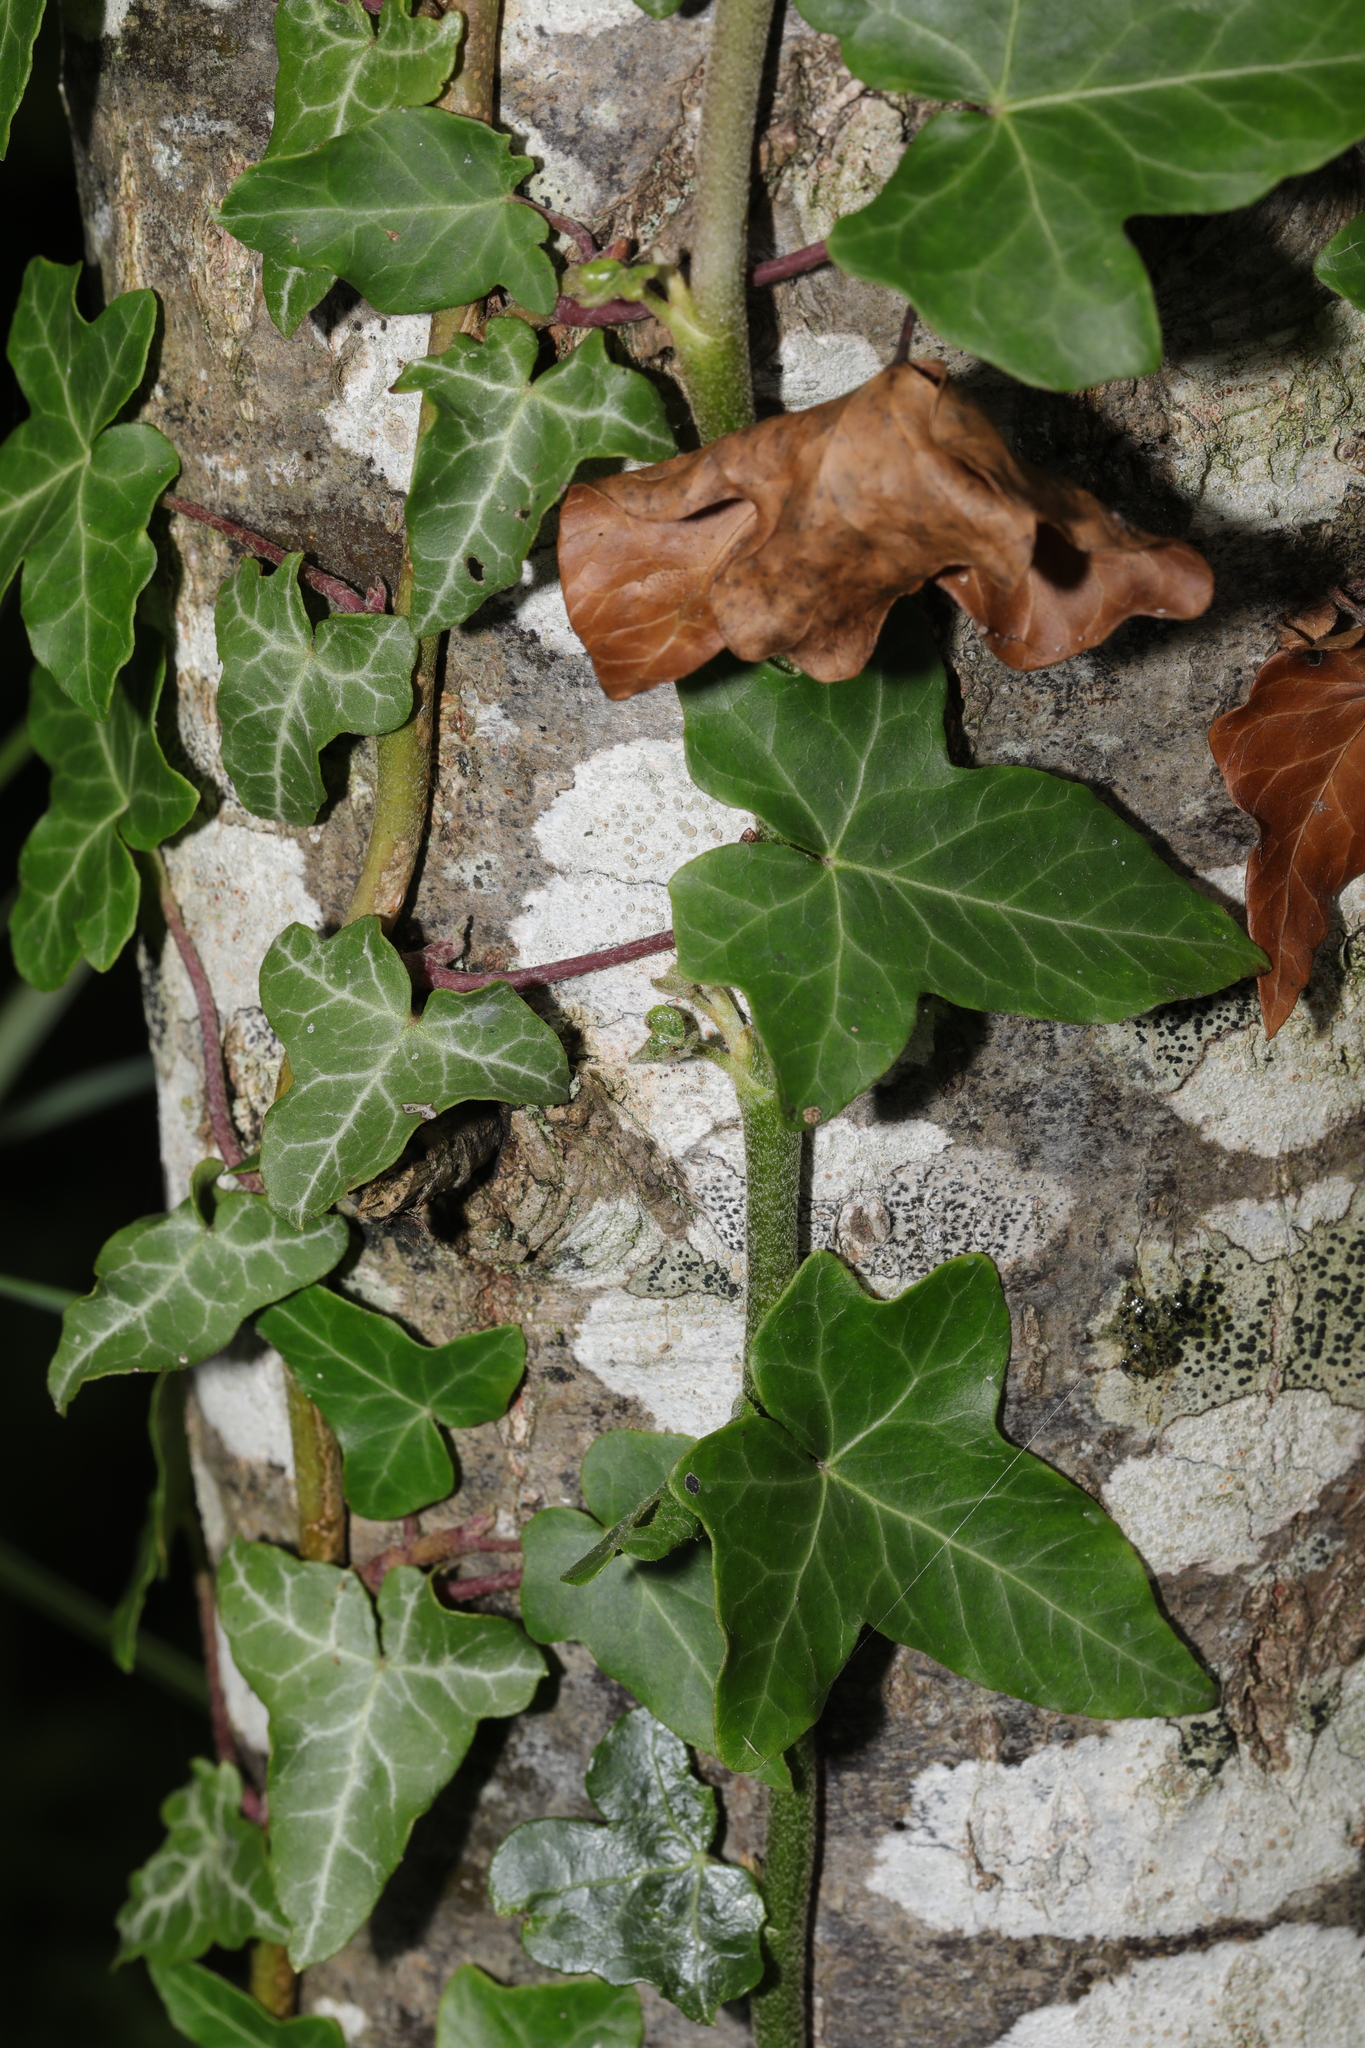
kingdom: Plantae
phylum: Tracheophyta
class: Magnoliopsida
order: Apiales
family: Araliaceae
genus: Hedera
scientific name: Hedera helix
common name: Ivy
